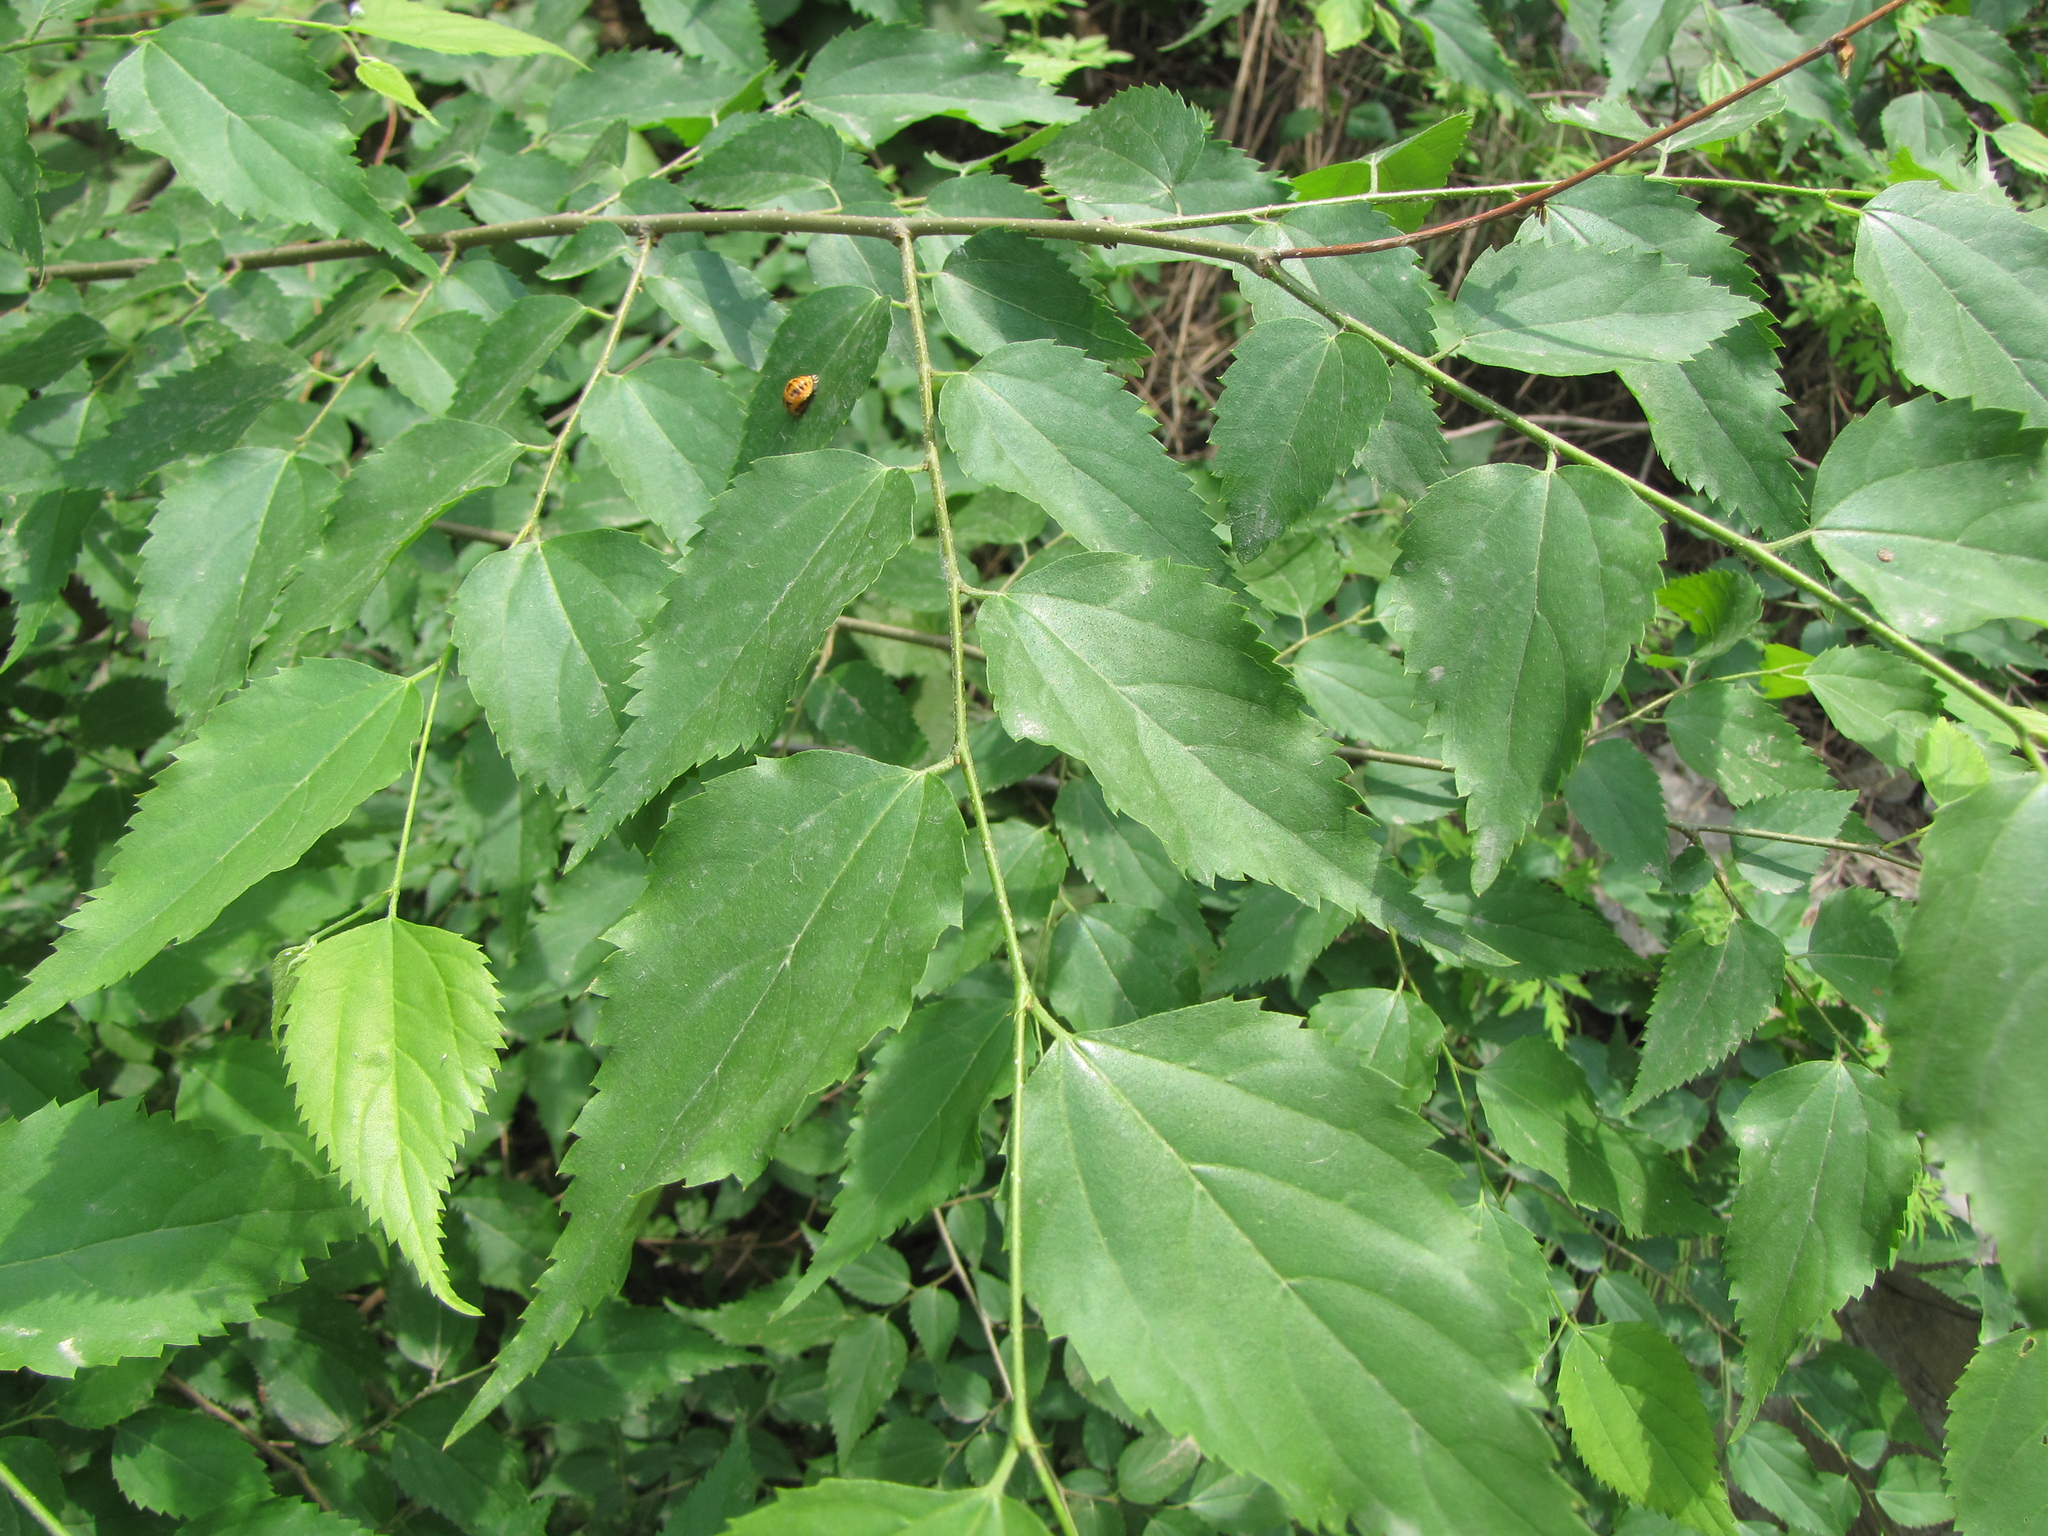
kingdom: Plantae
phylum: Tracheophyta
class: Magnoliopsida
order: Rosales
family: Cannabaceae
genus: Pteroceltis
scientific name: Pteroceltis tatarinowii
